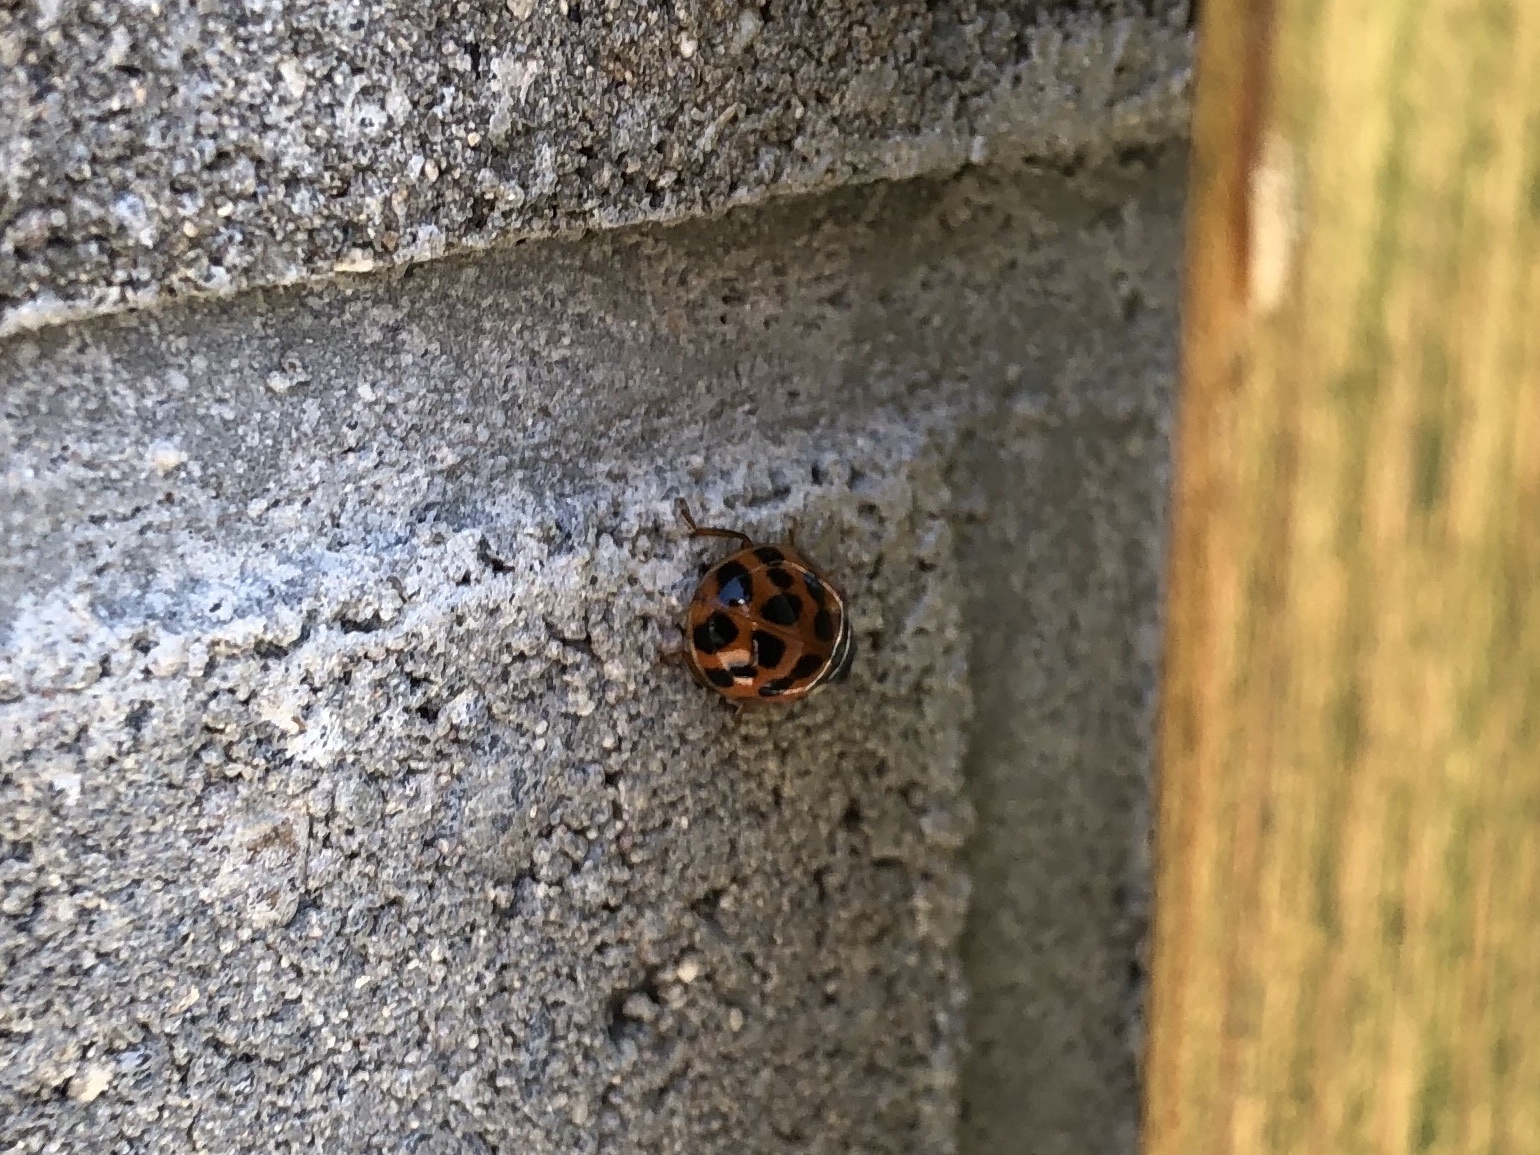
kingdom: Animalia
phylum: Arthropoda
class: Insecta
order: Coleoptera
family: Coccinellidae
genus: Harmonia
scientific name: Harmonia axyridis
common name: Harlequin ladybird
